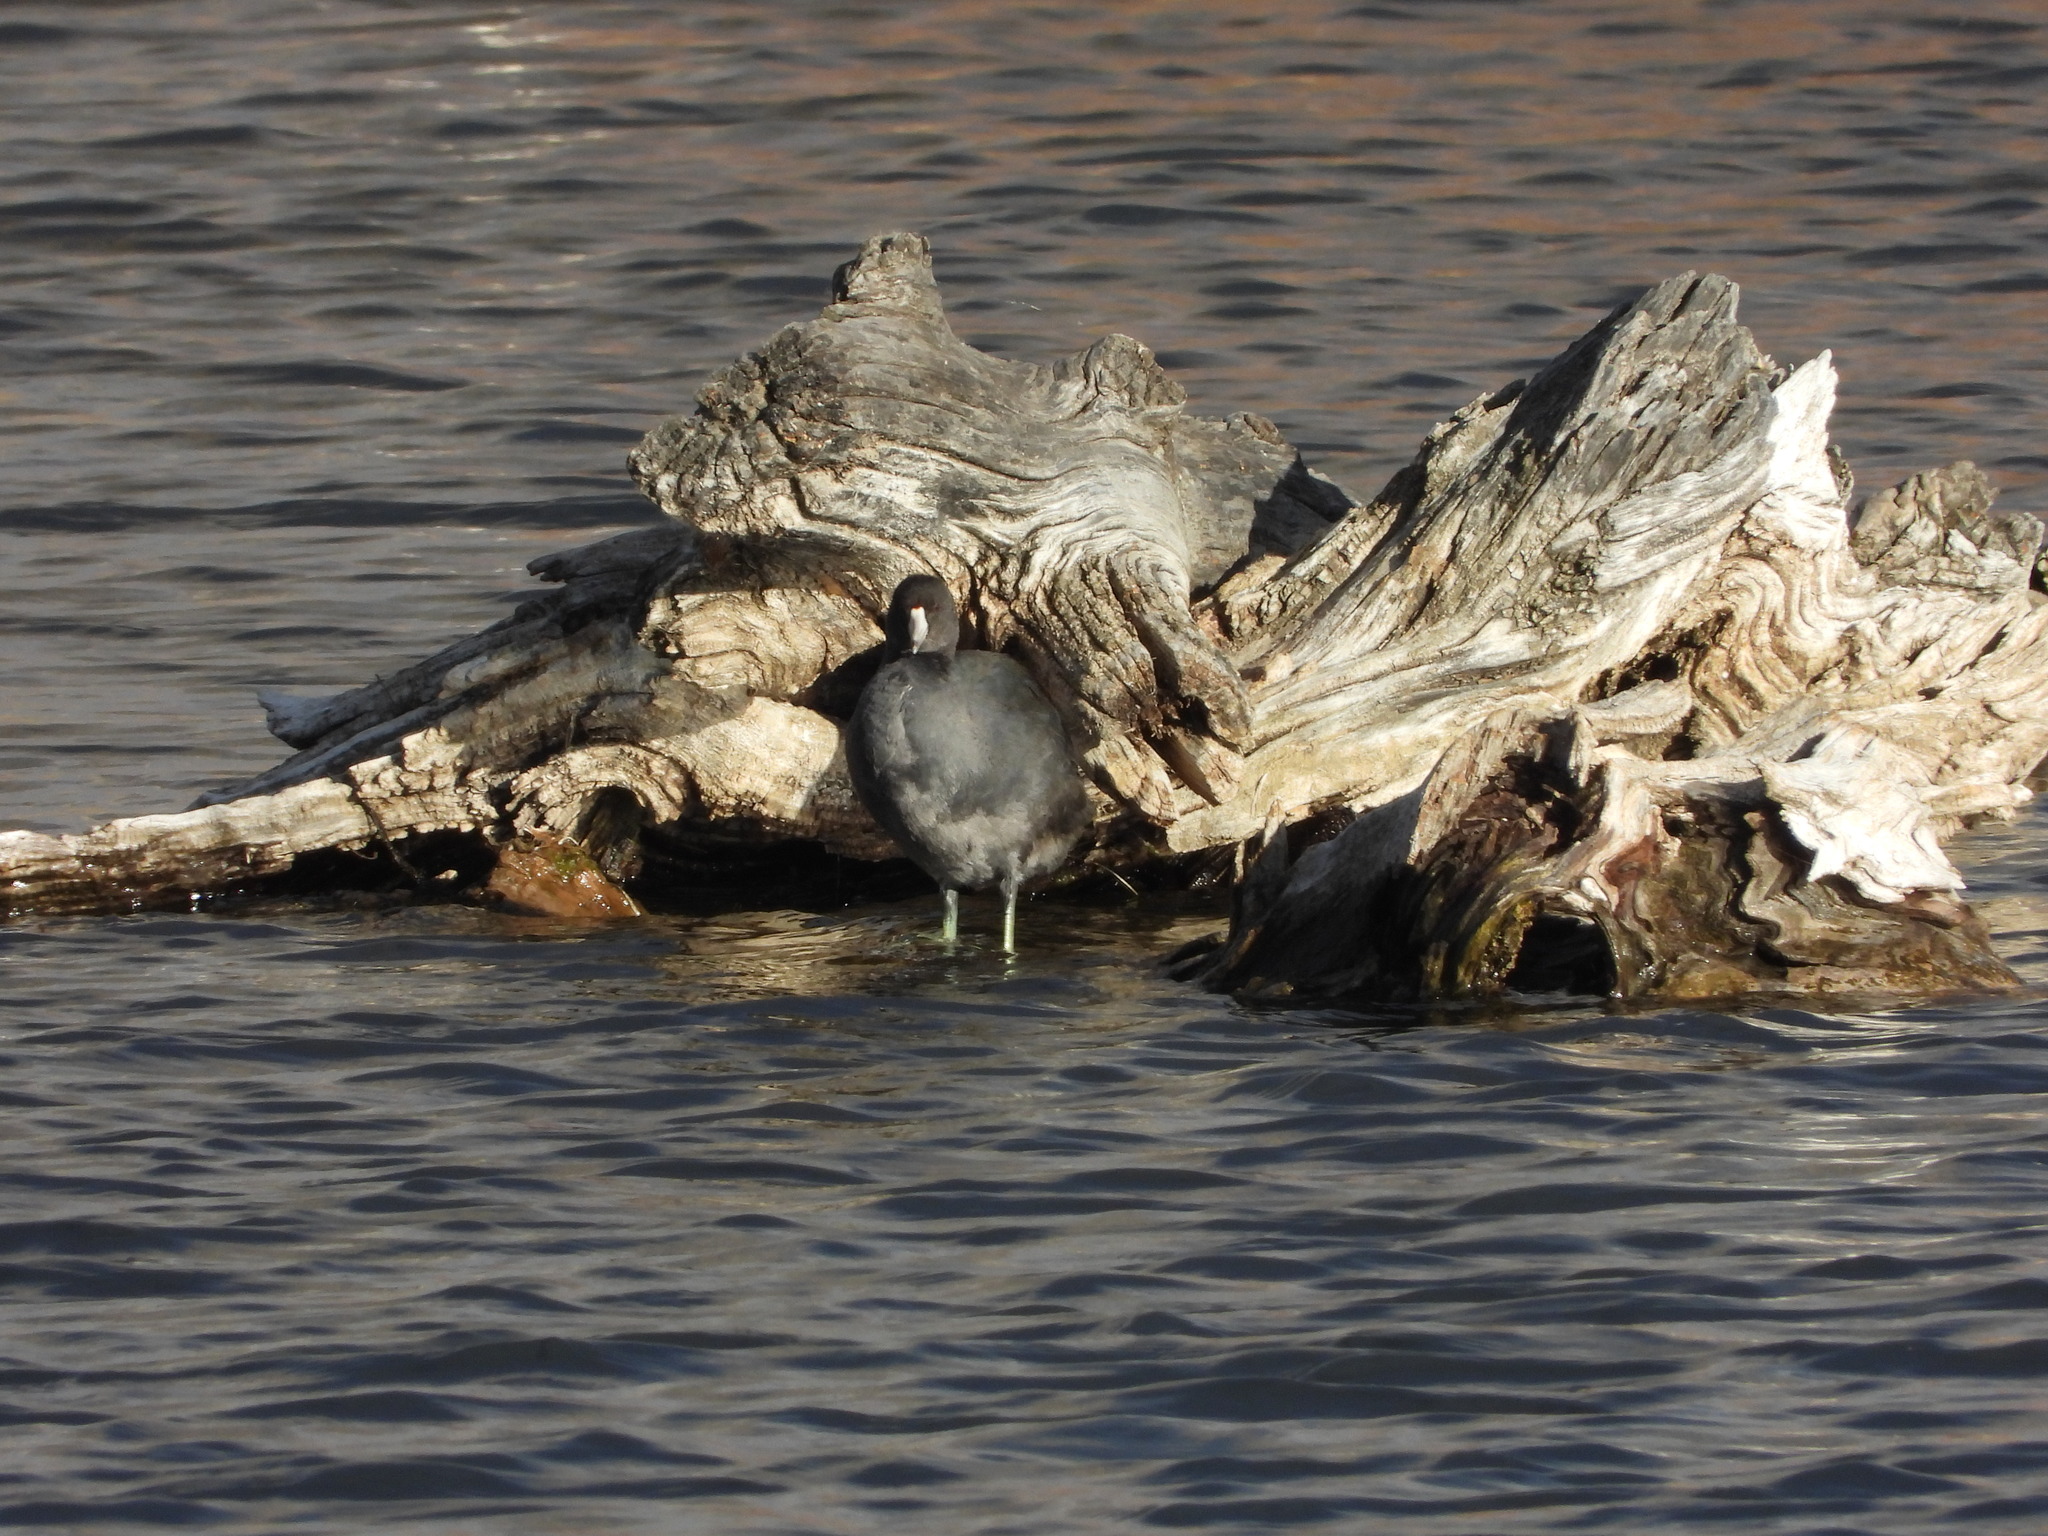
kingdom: Animalia
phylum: Chordata
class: Aves
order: Gruiformes
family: Rallidae
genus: Fulica
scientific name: Fulica americana
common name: American coot
